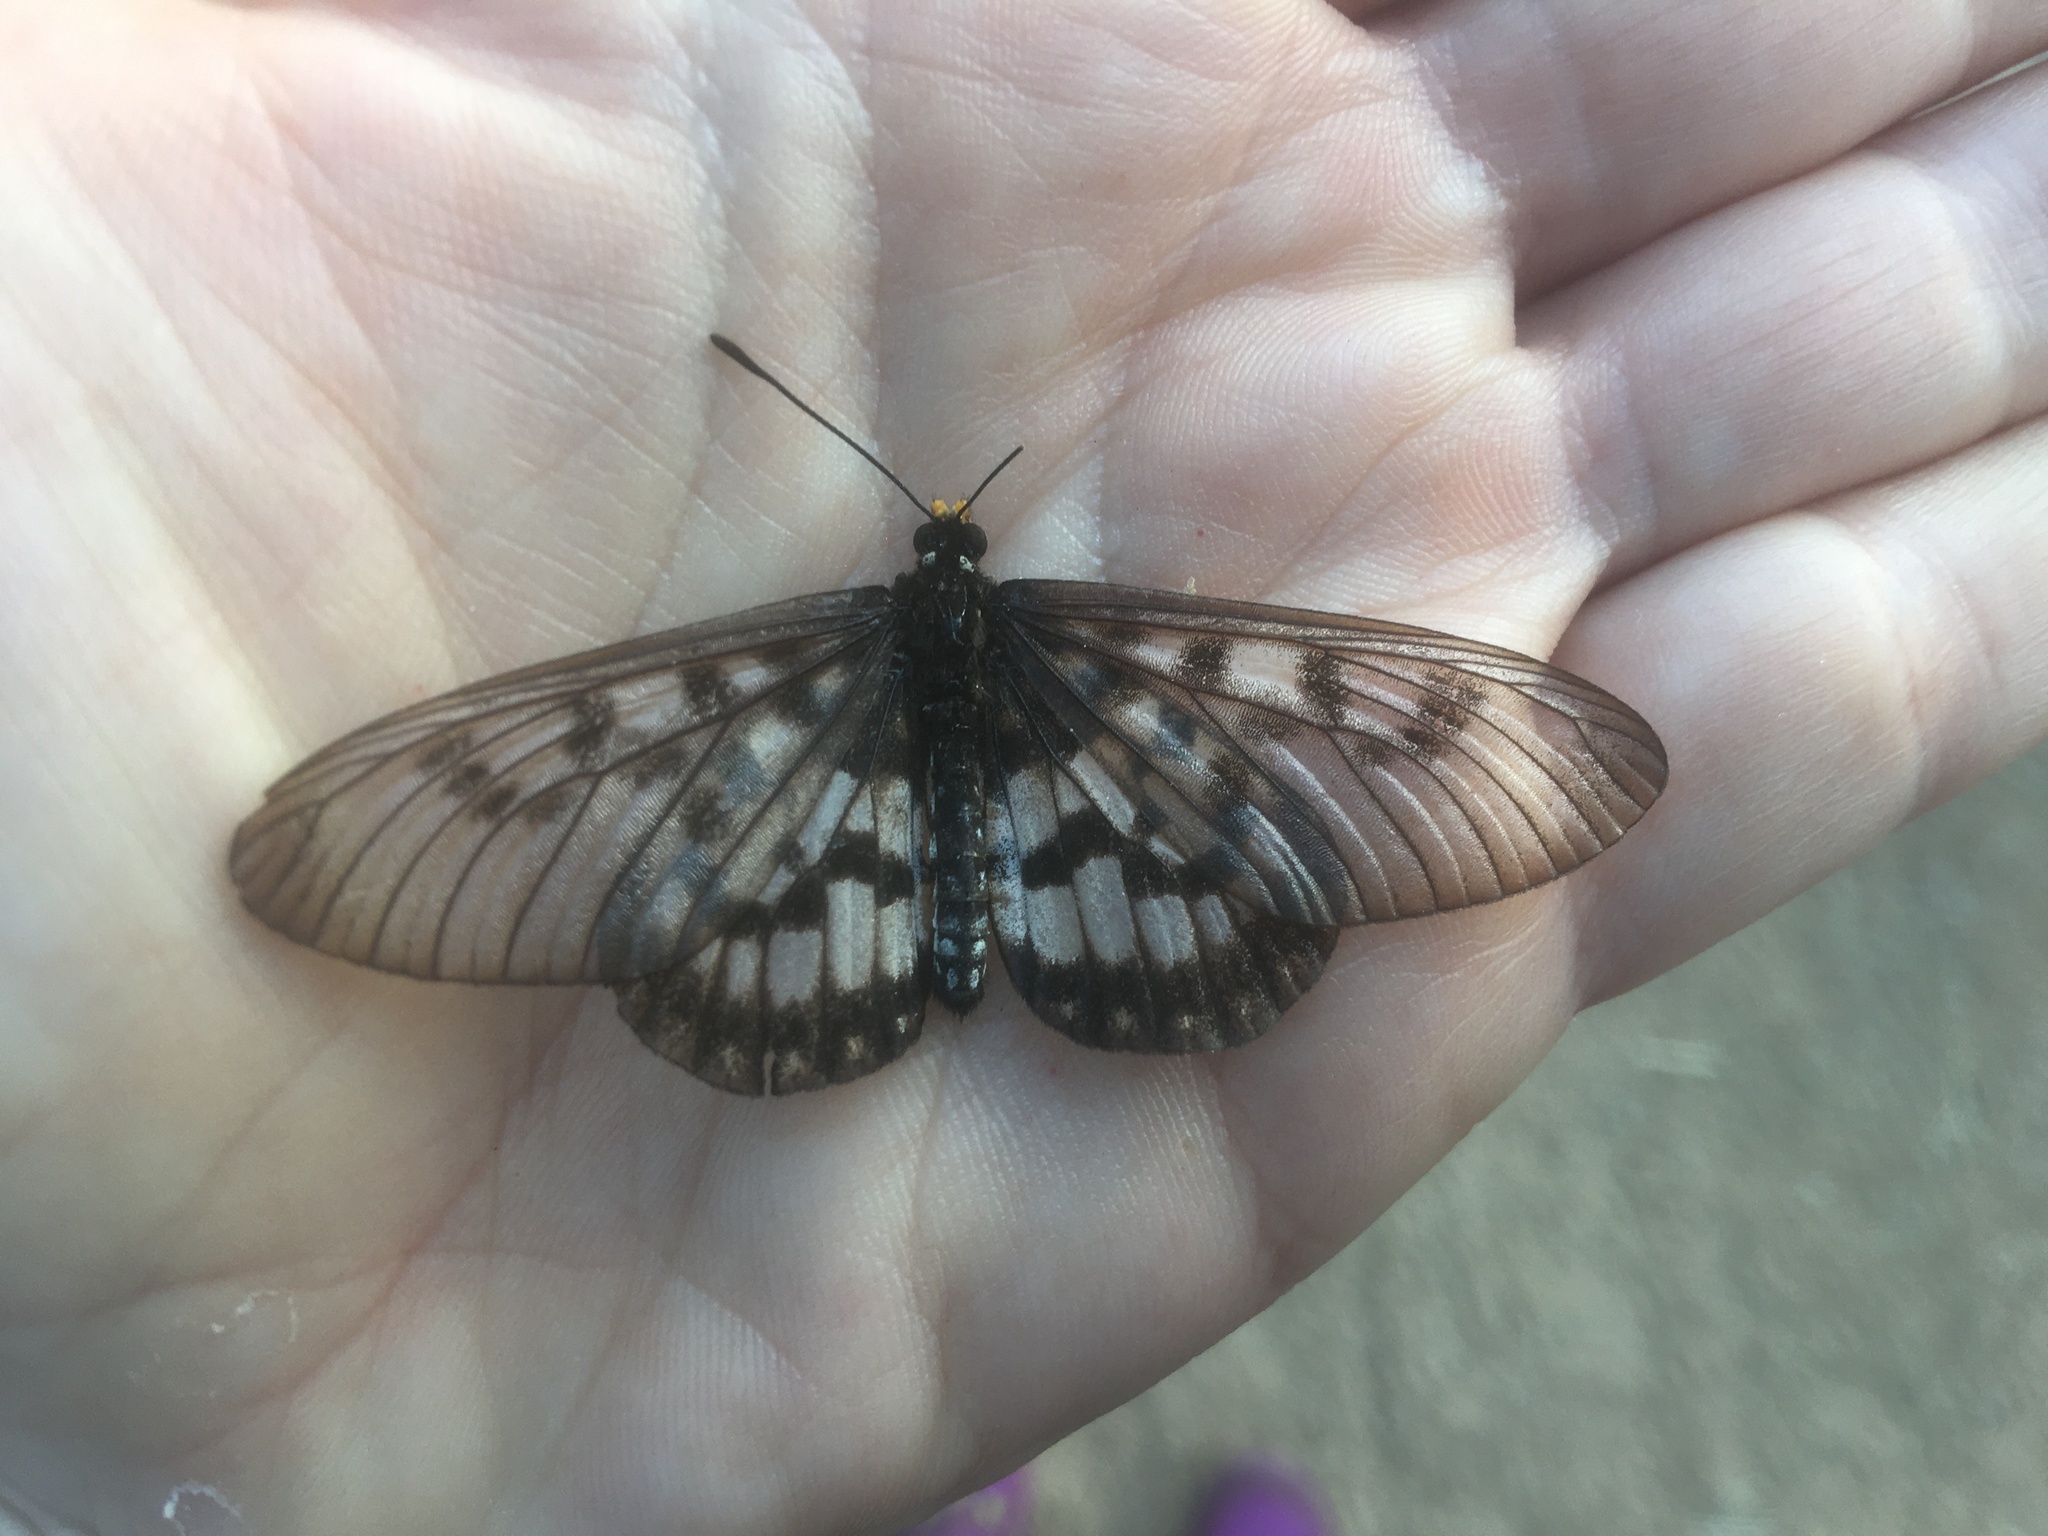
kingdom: Animalia
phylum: Arthropoda
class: Insecta
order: Lepidoptera
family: Nymphalidae
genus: Acraea
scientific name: Acraea andromacha
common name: Glasswing
